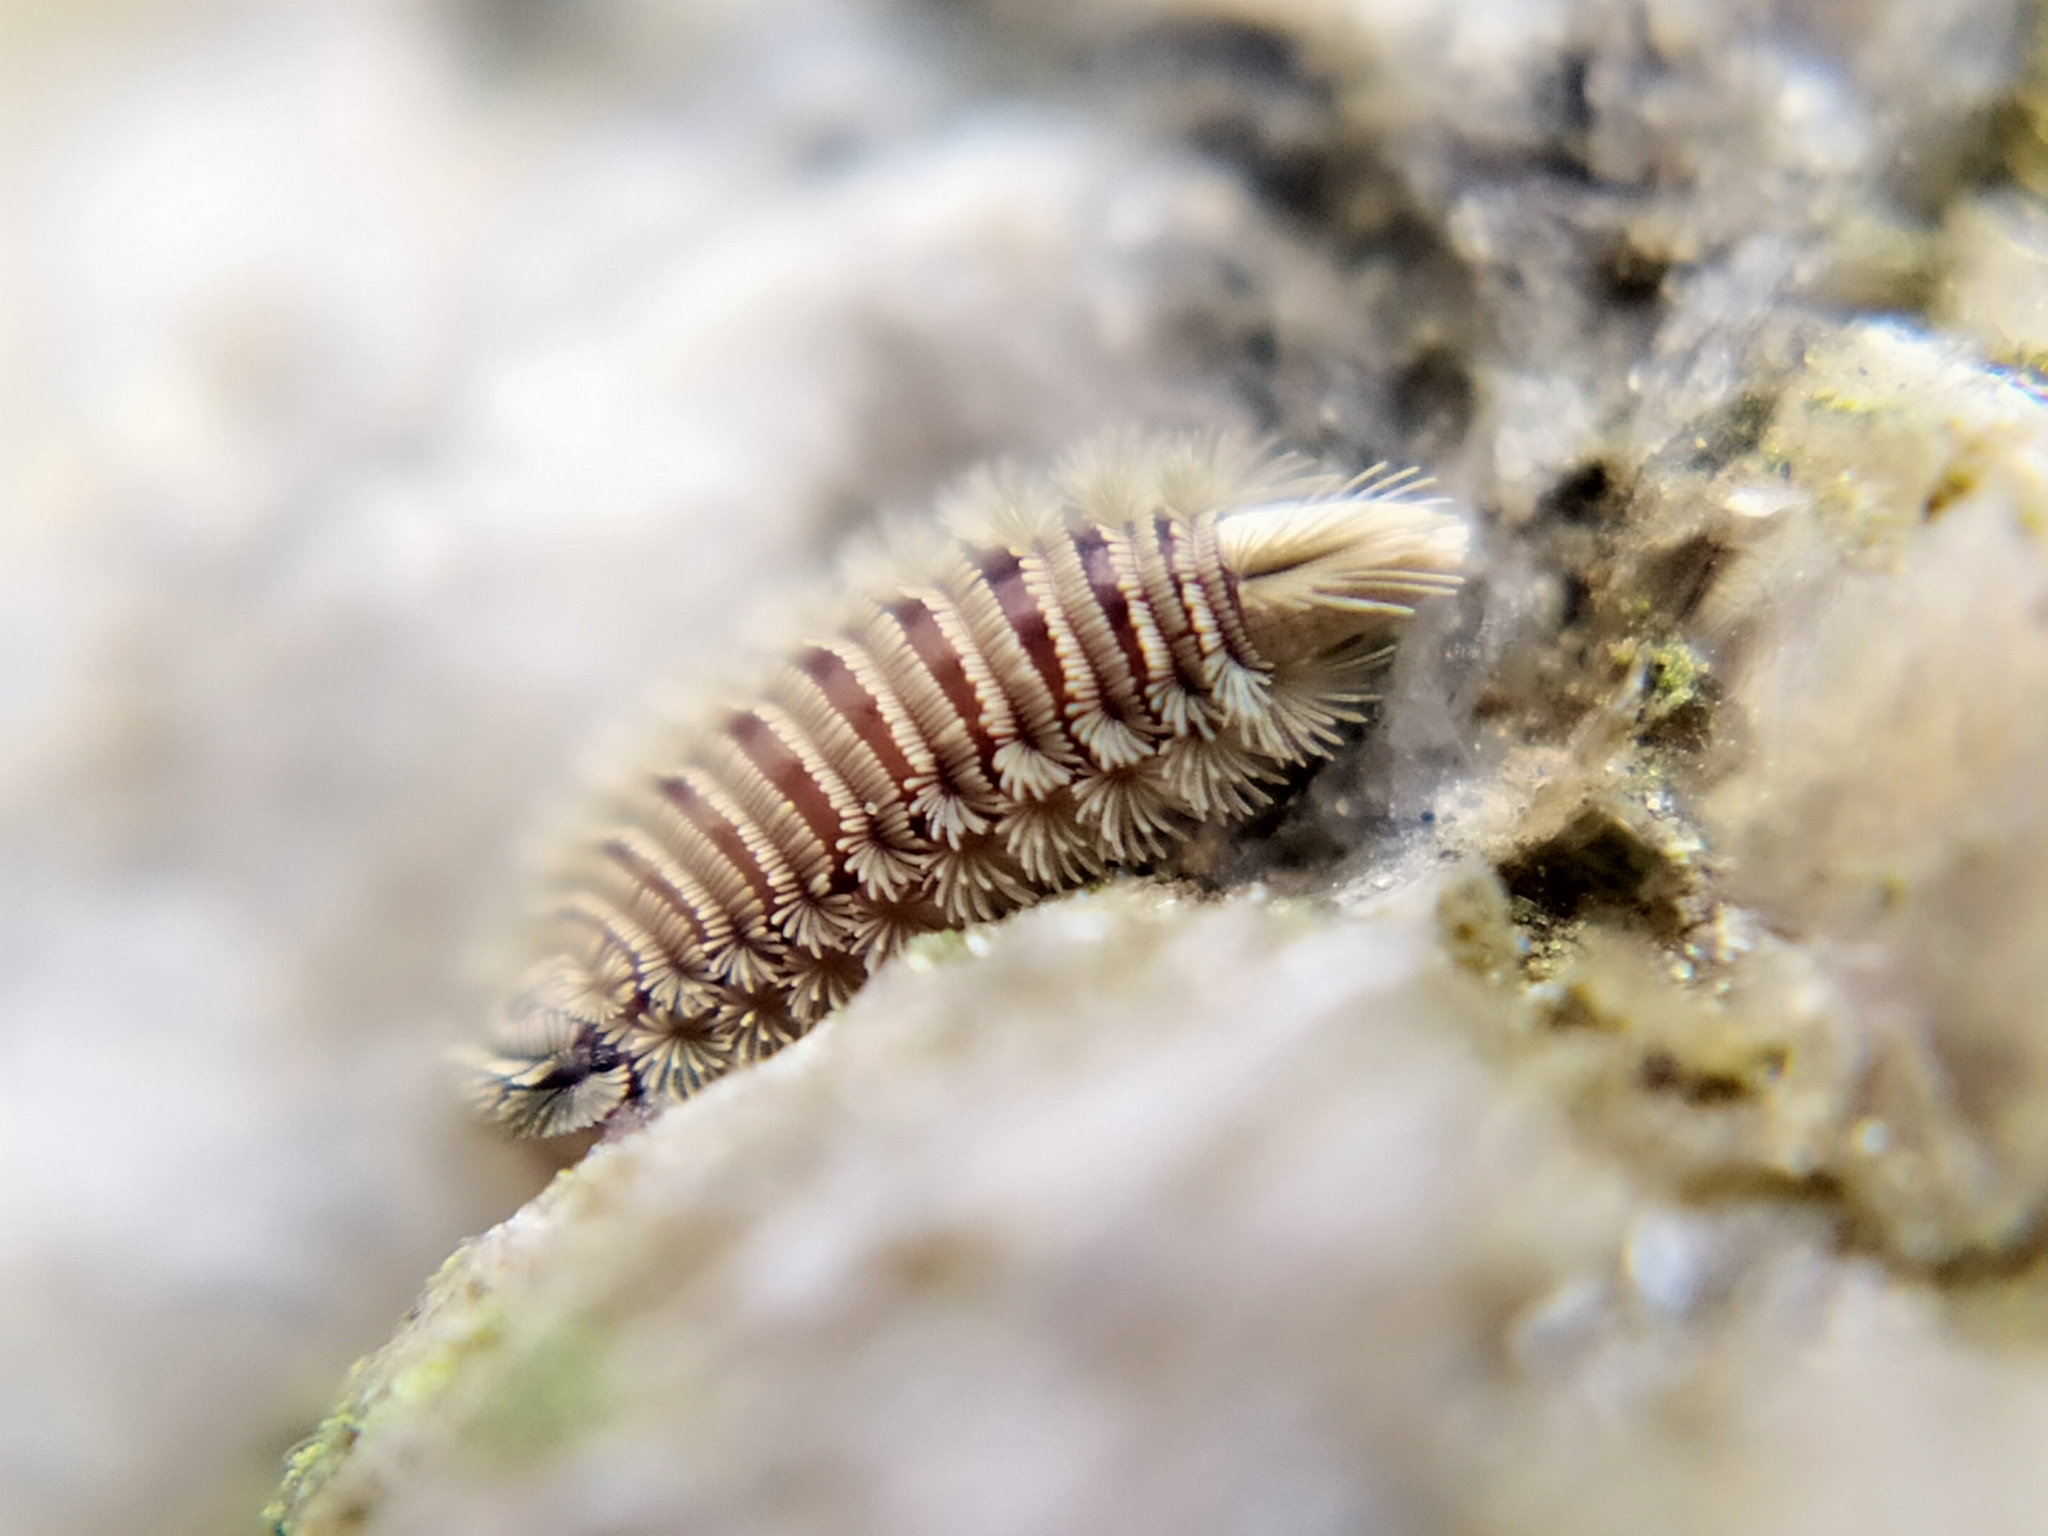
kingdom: Animalia
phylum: Arthropoda
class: Diplopoda
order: Polyxenida
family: Polyxenidae
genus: Polyxenus
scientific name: Polyxenus lagurus
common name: Bristly millipede
